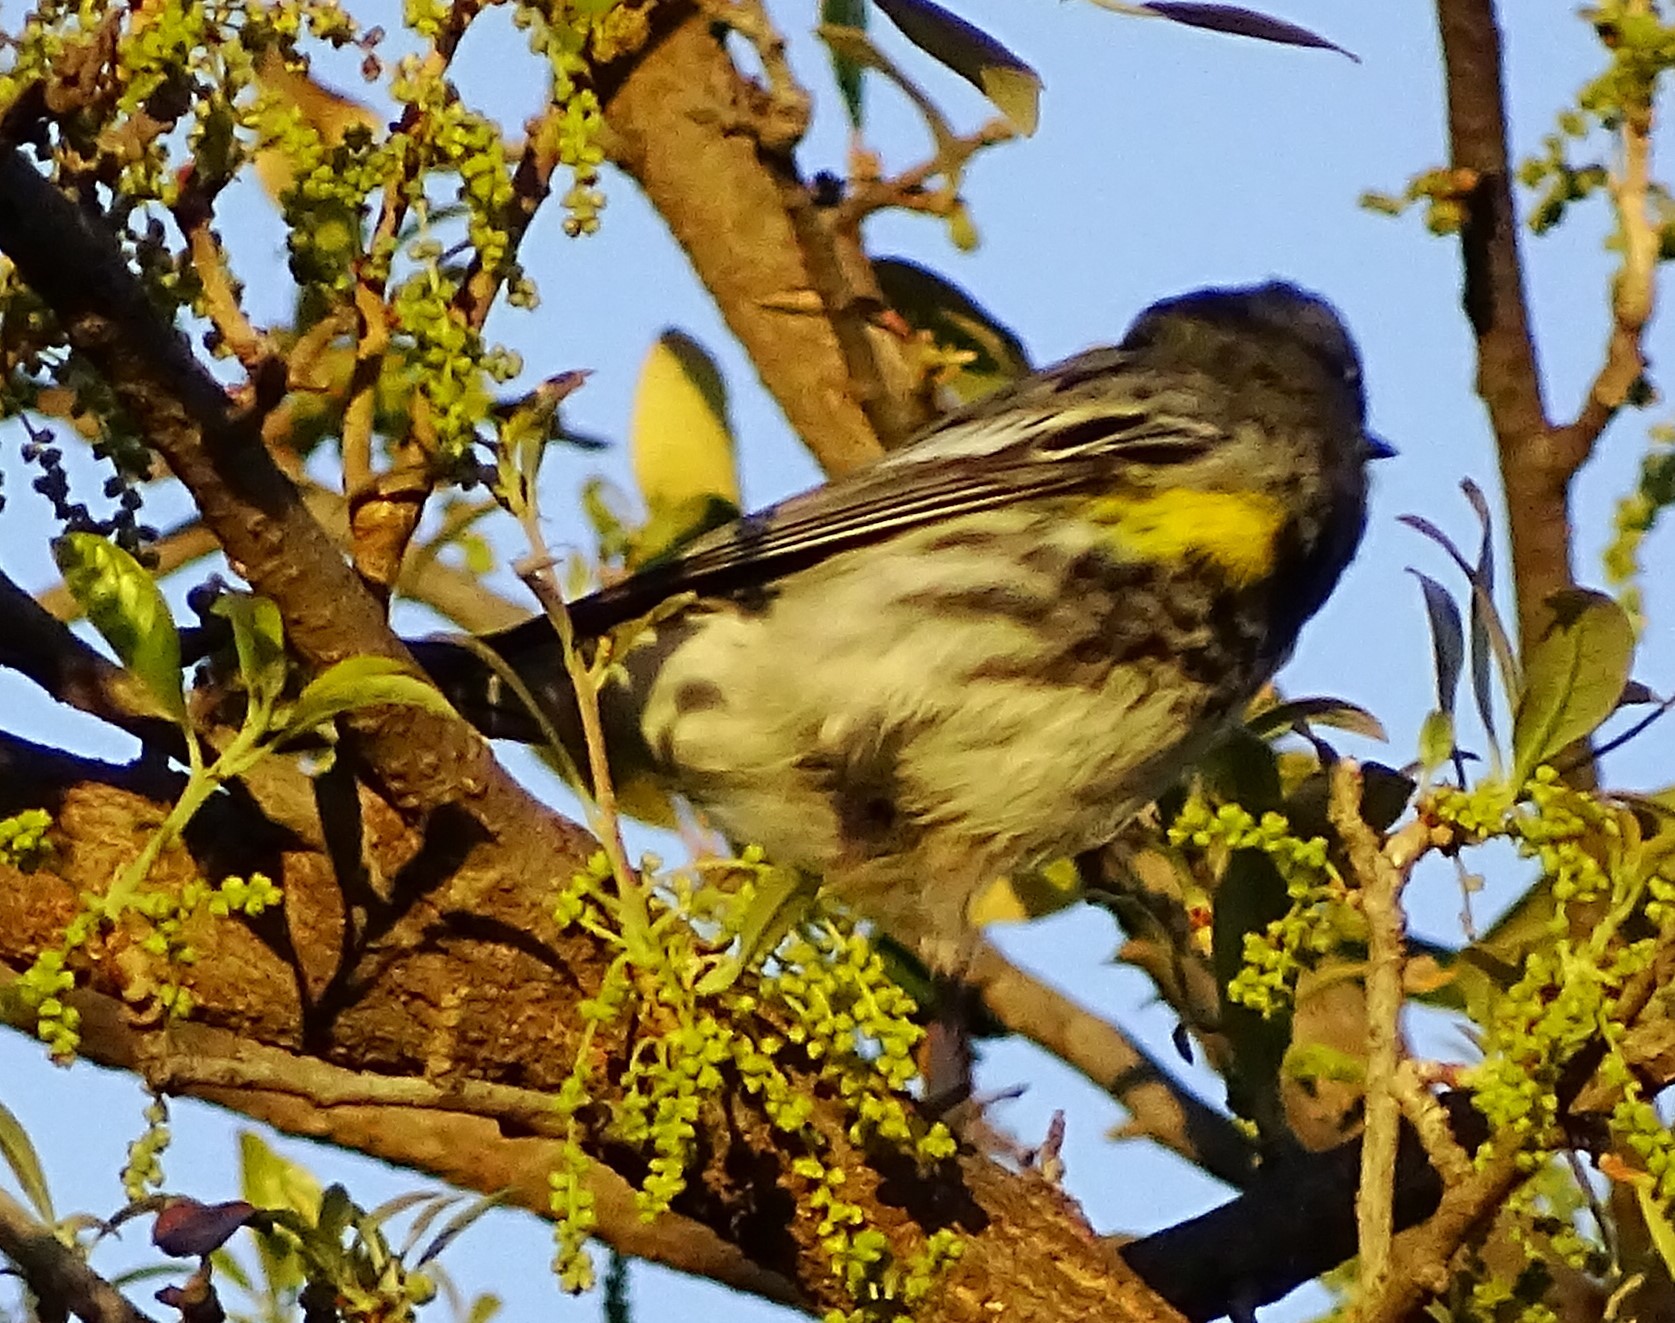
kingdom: Animalia
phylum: Chordata
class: Aves
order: Passeriformes
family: Parulidae
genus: Setophaga
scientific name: Setophaga coronata
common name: Myrtle warbler
